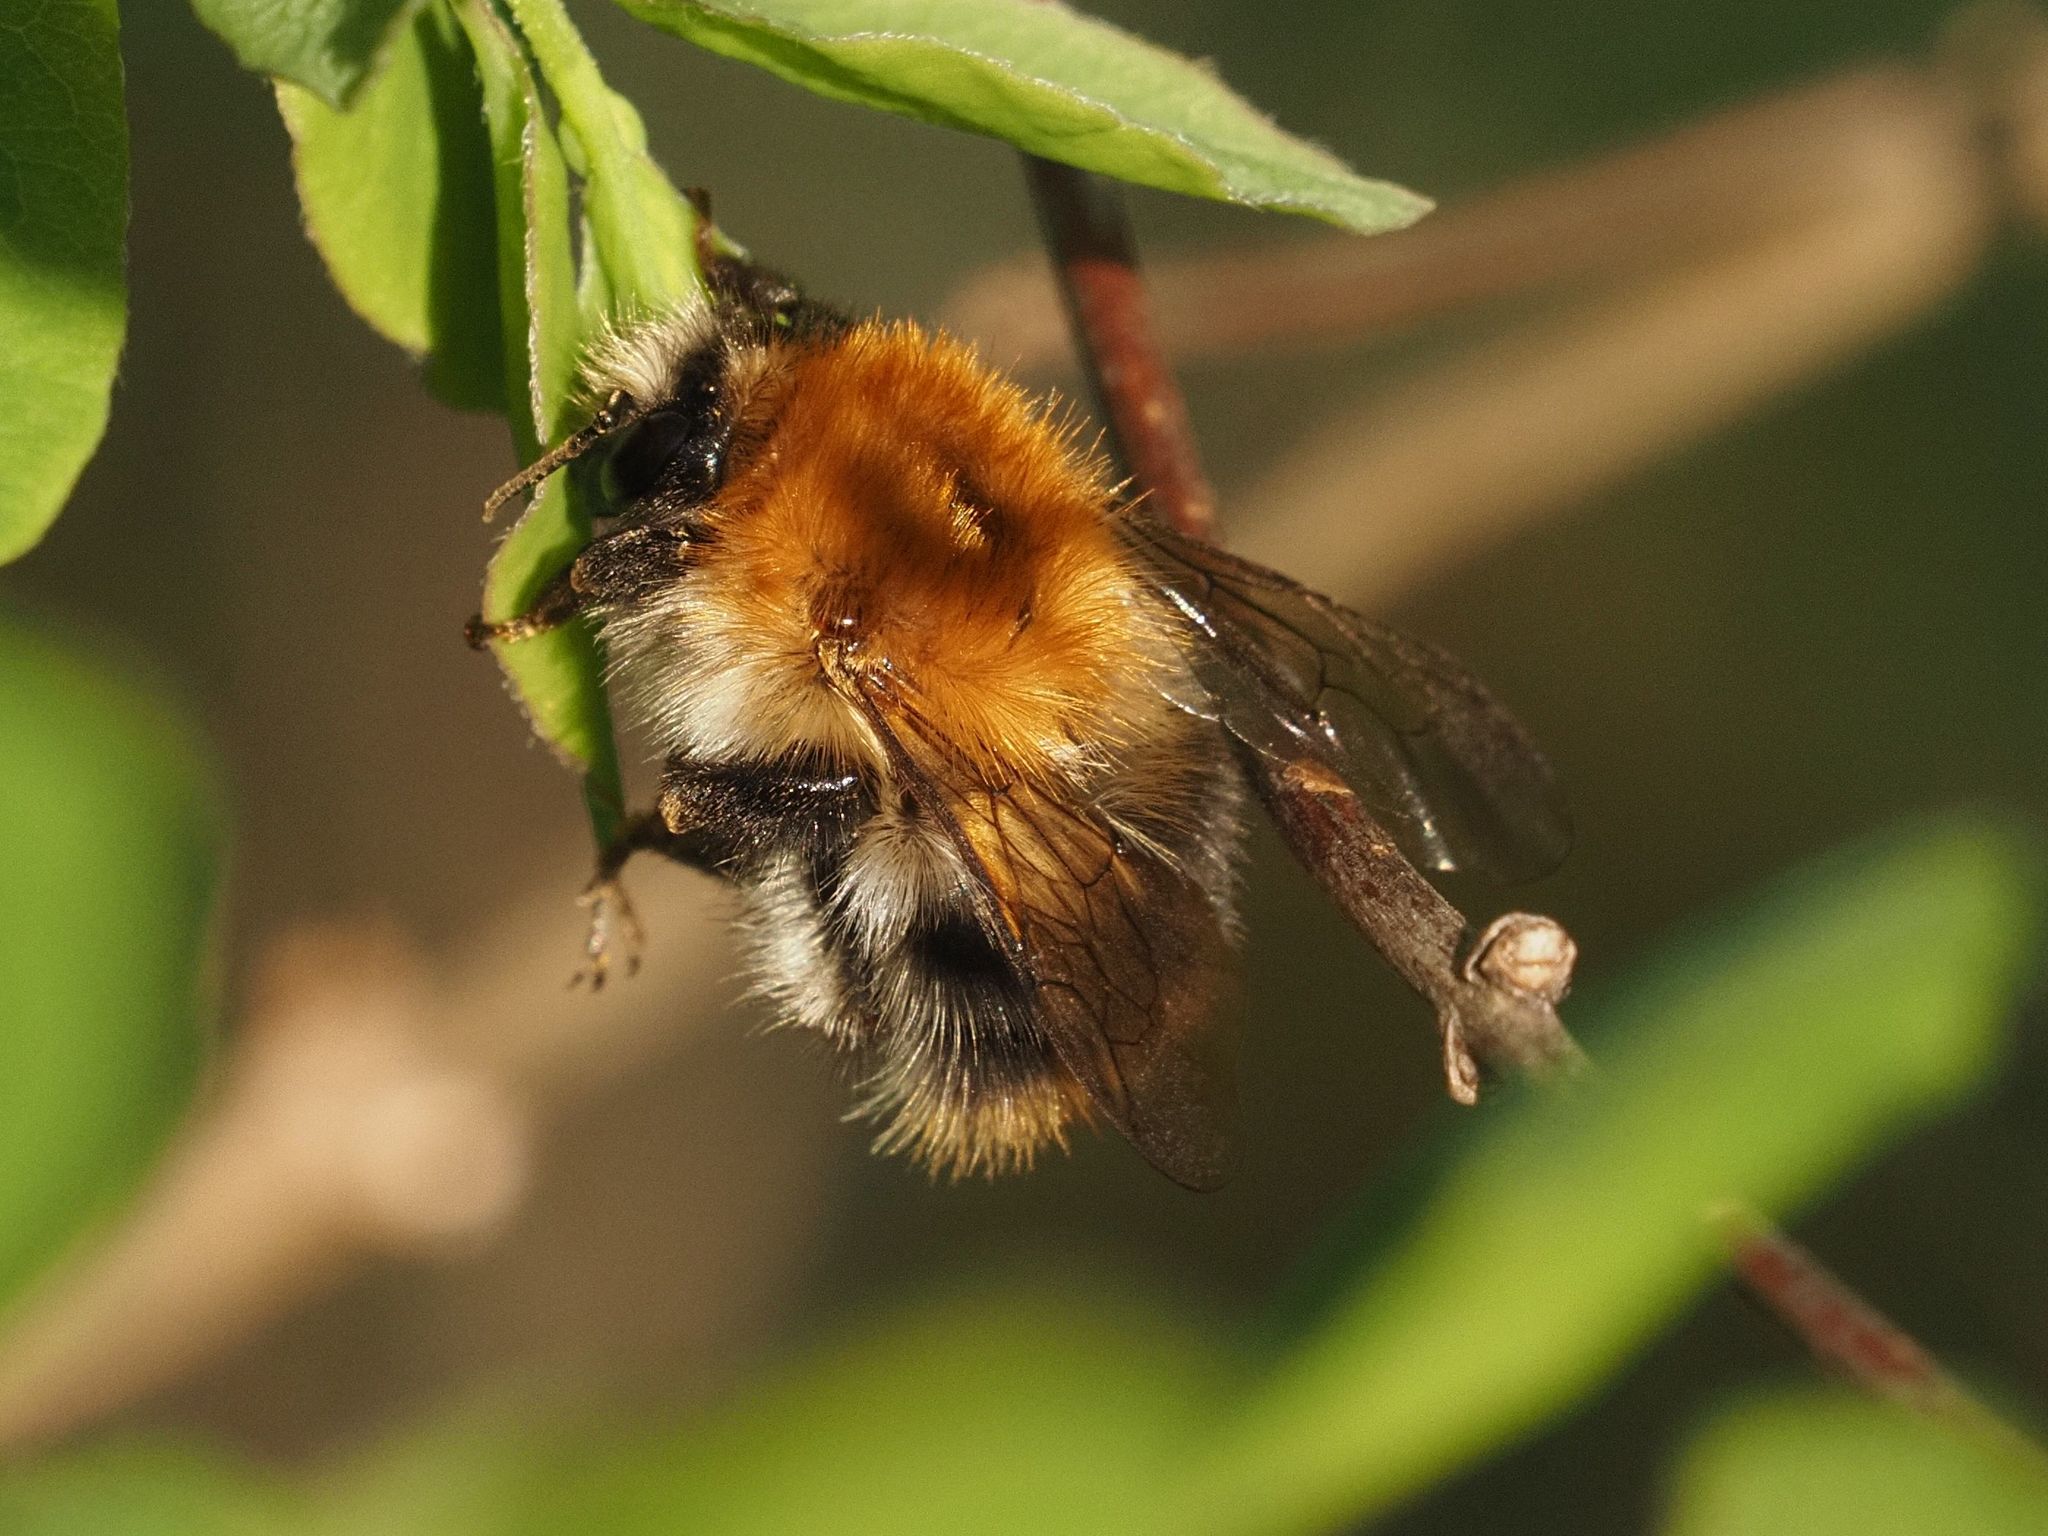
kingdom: Animalia
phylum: Arthropoda
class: Insecta
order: Hymenoptera
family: Apidae
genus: Bombus
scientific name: Bombus pascuorum
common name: Common carder bee
